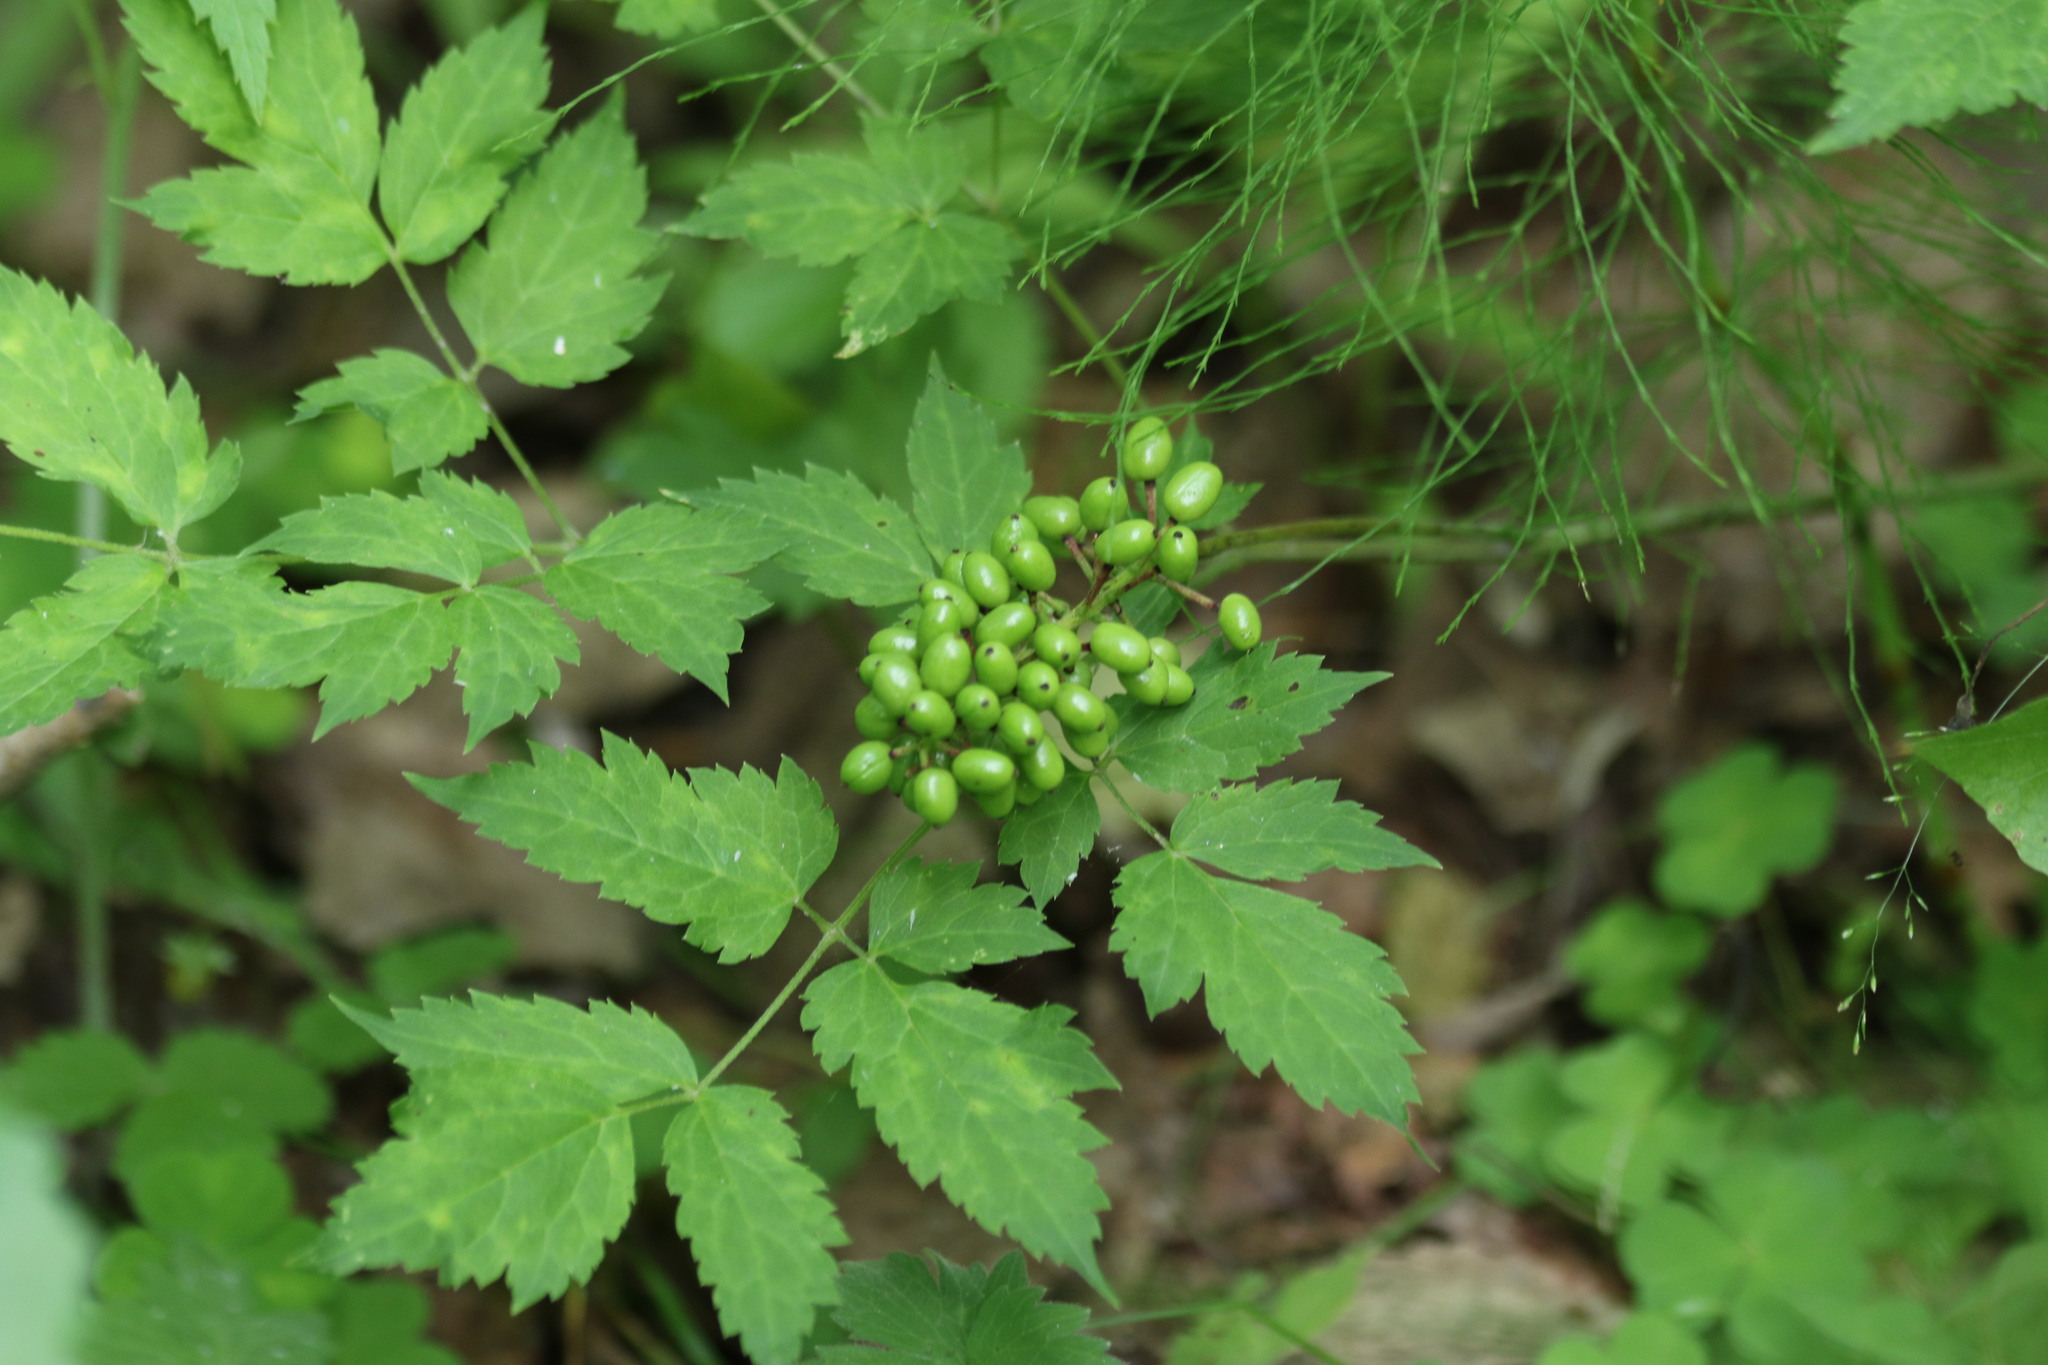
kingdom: Plantae
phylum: Tracheophyta
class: Magnoliopsida
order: Ranunculales
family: Ranunculaceae
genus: Actaea
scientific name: Actaea erythrocarpa
